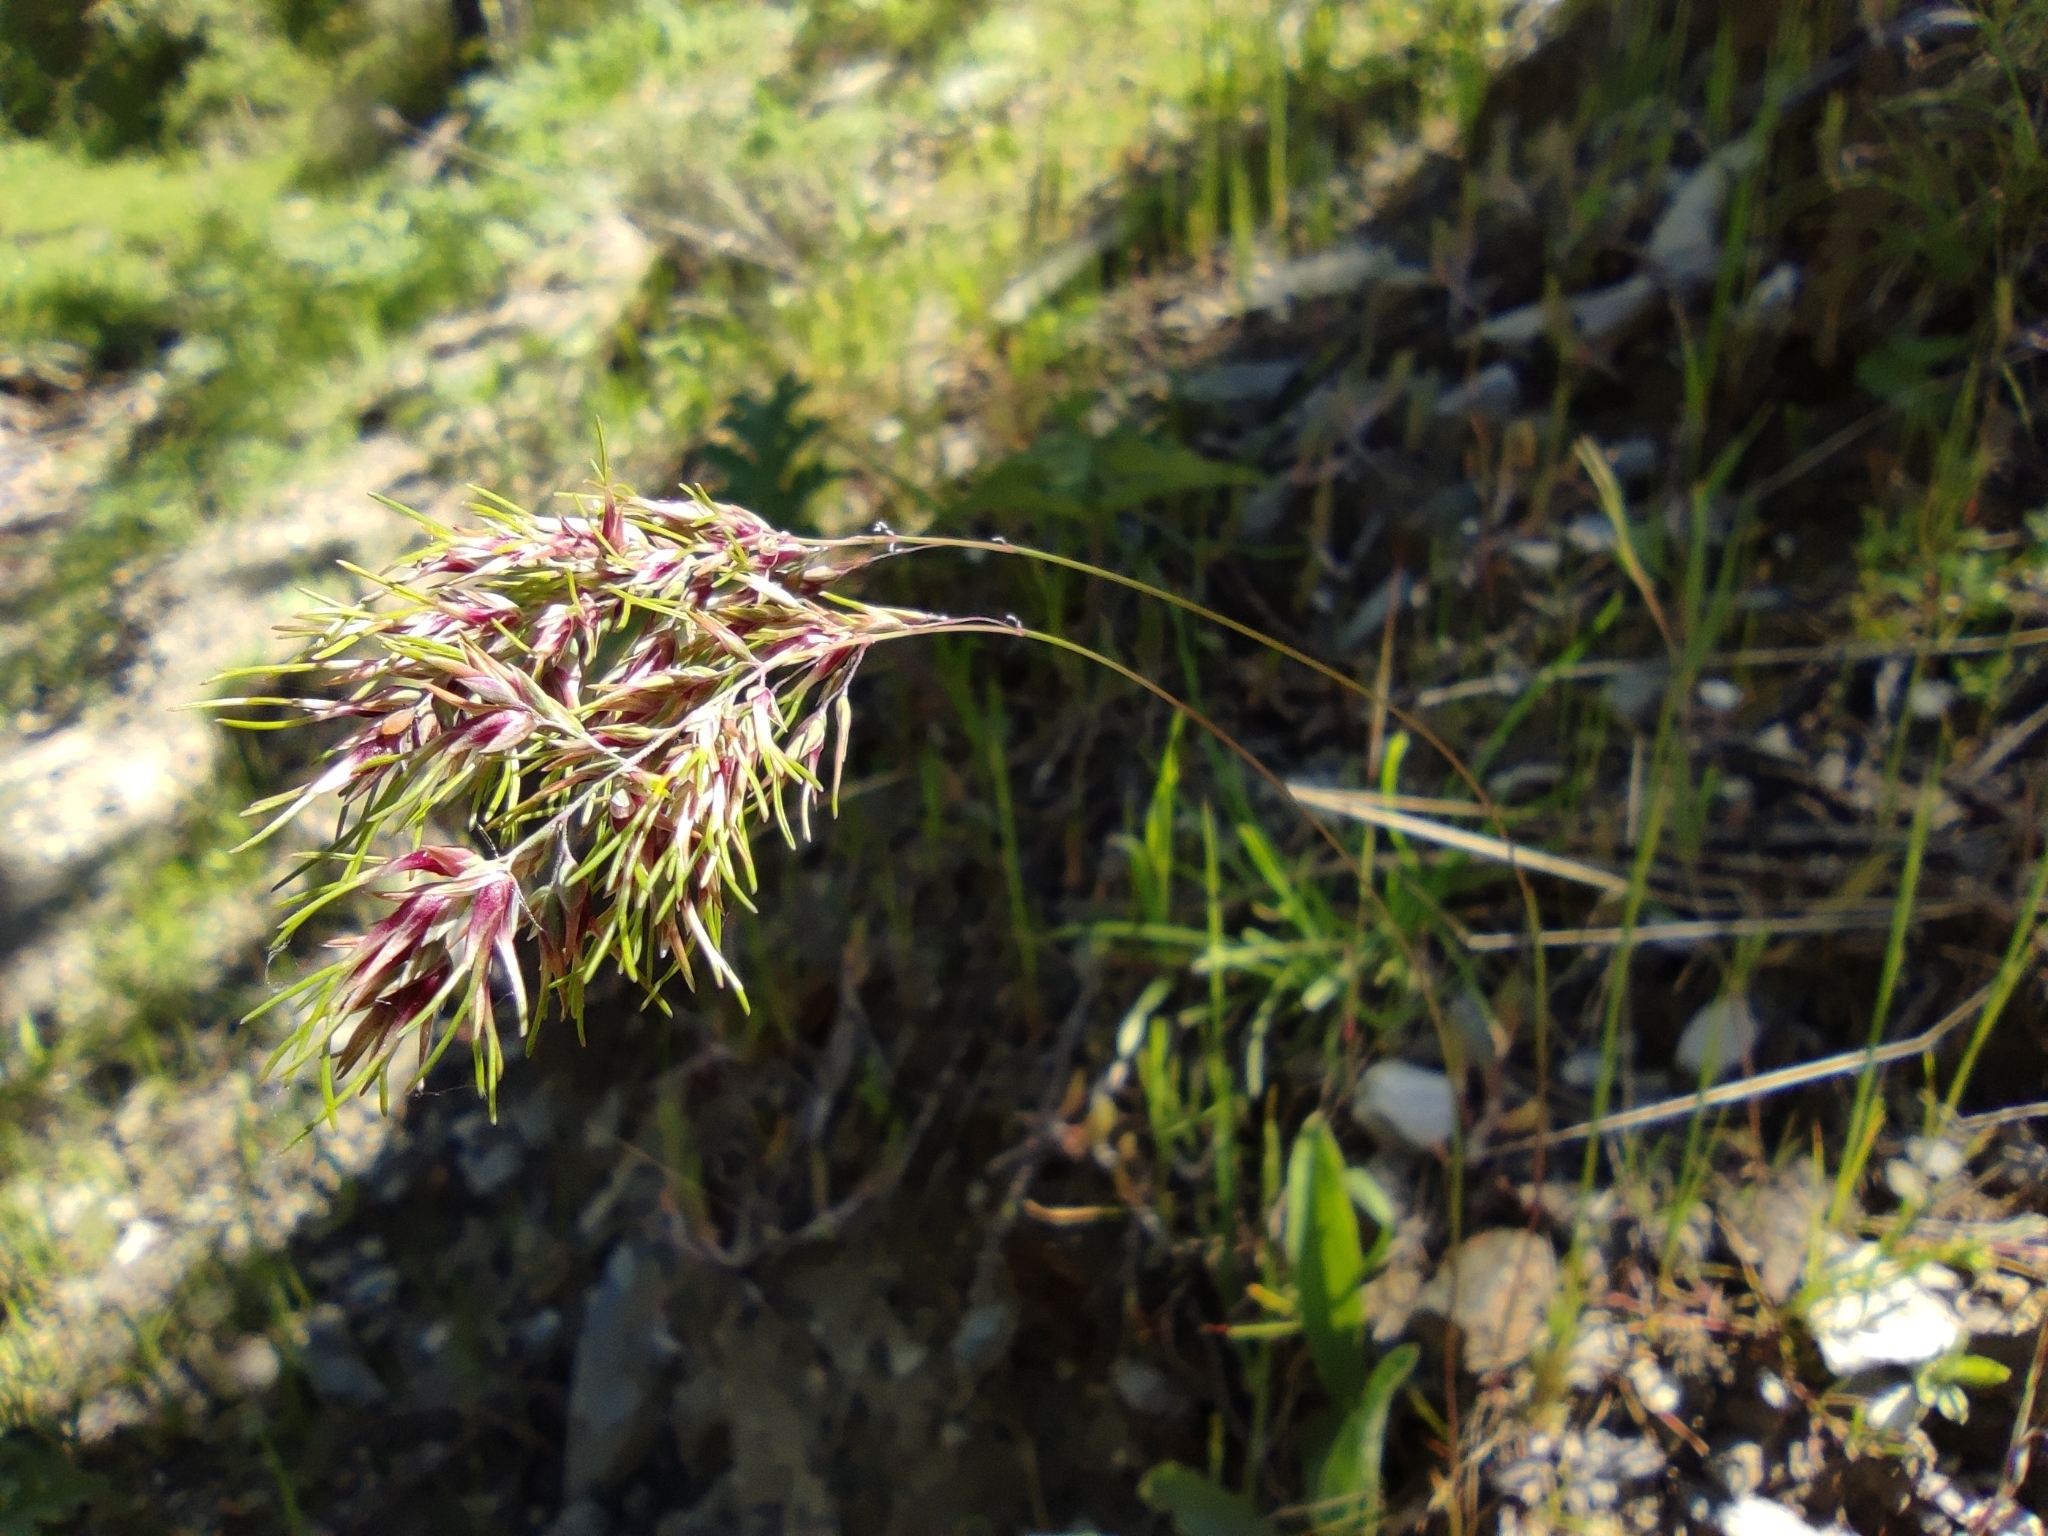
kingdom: Plantae
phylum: Tracheophyta
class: Liliopsida
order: Poales
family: Poaceae
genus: Poa
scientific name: Poa bulbosa
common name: Bulbous bluegrass
